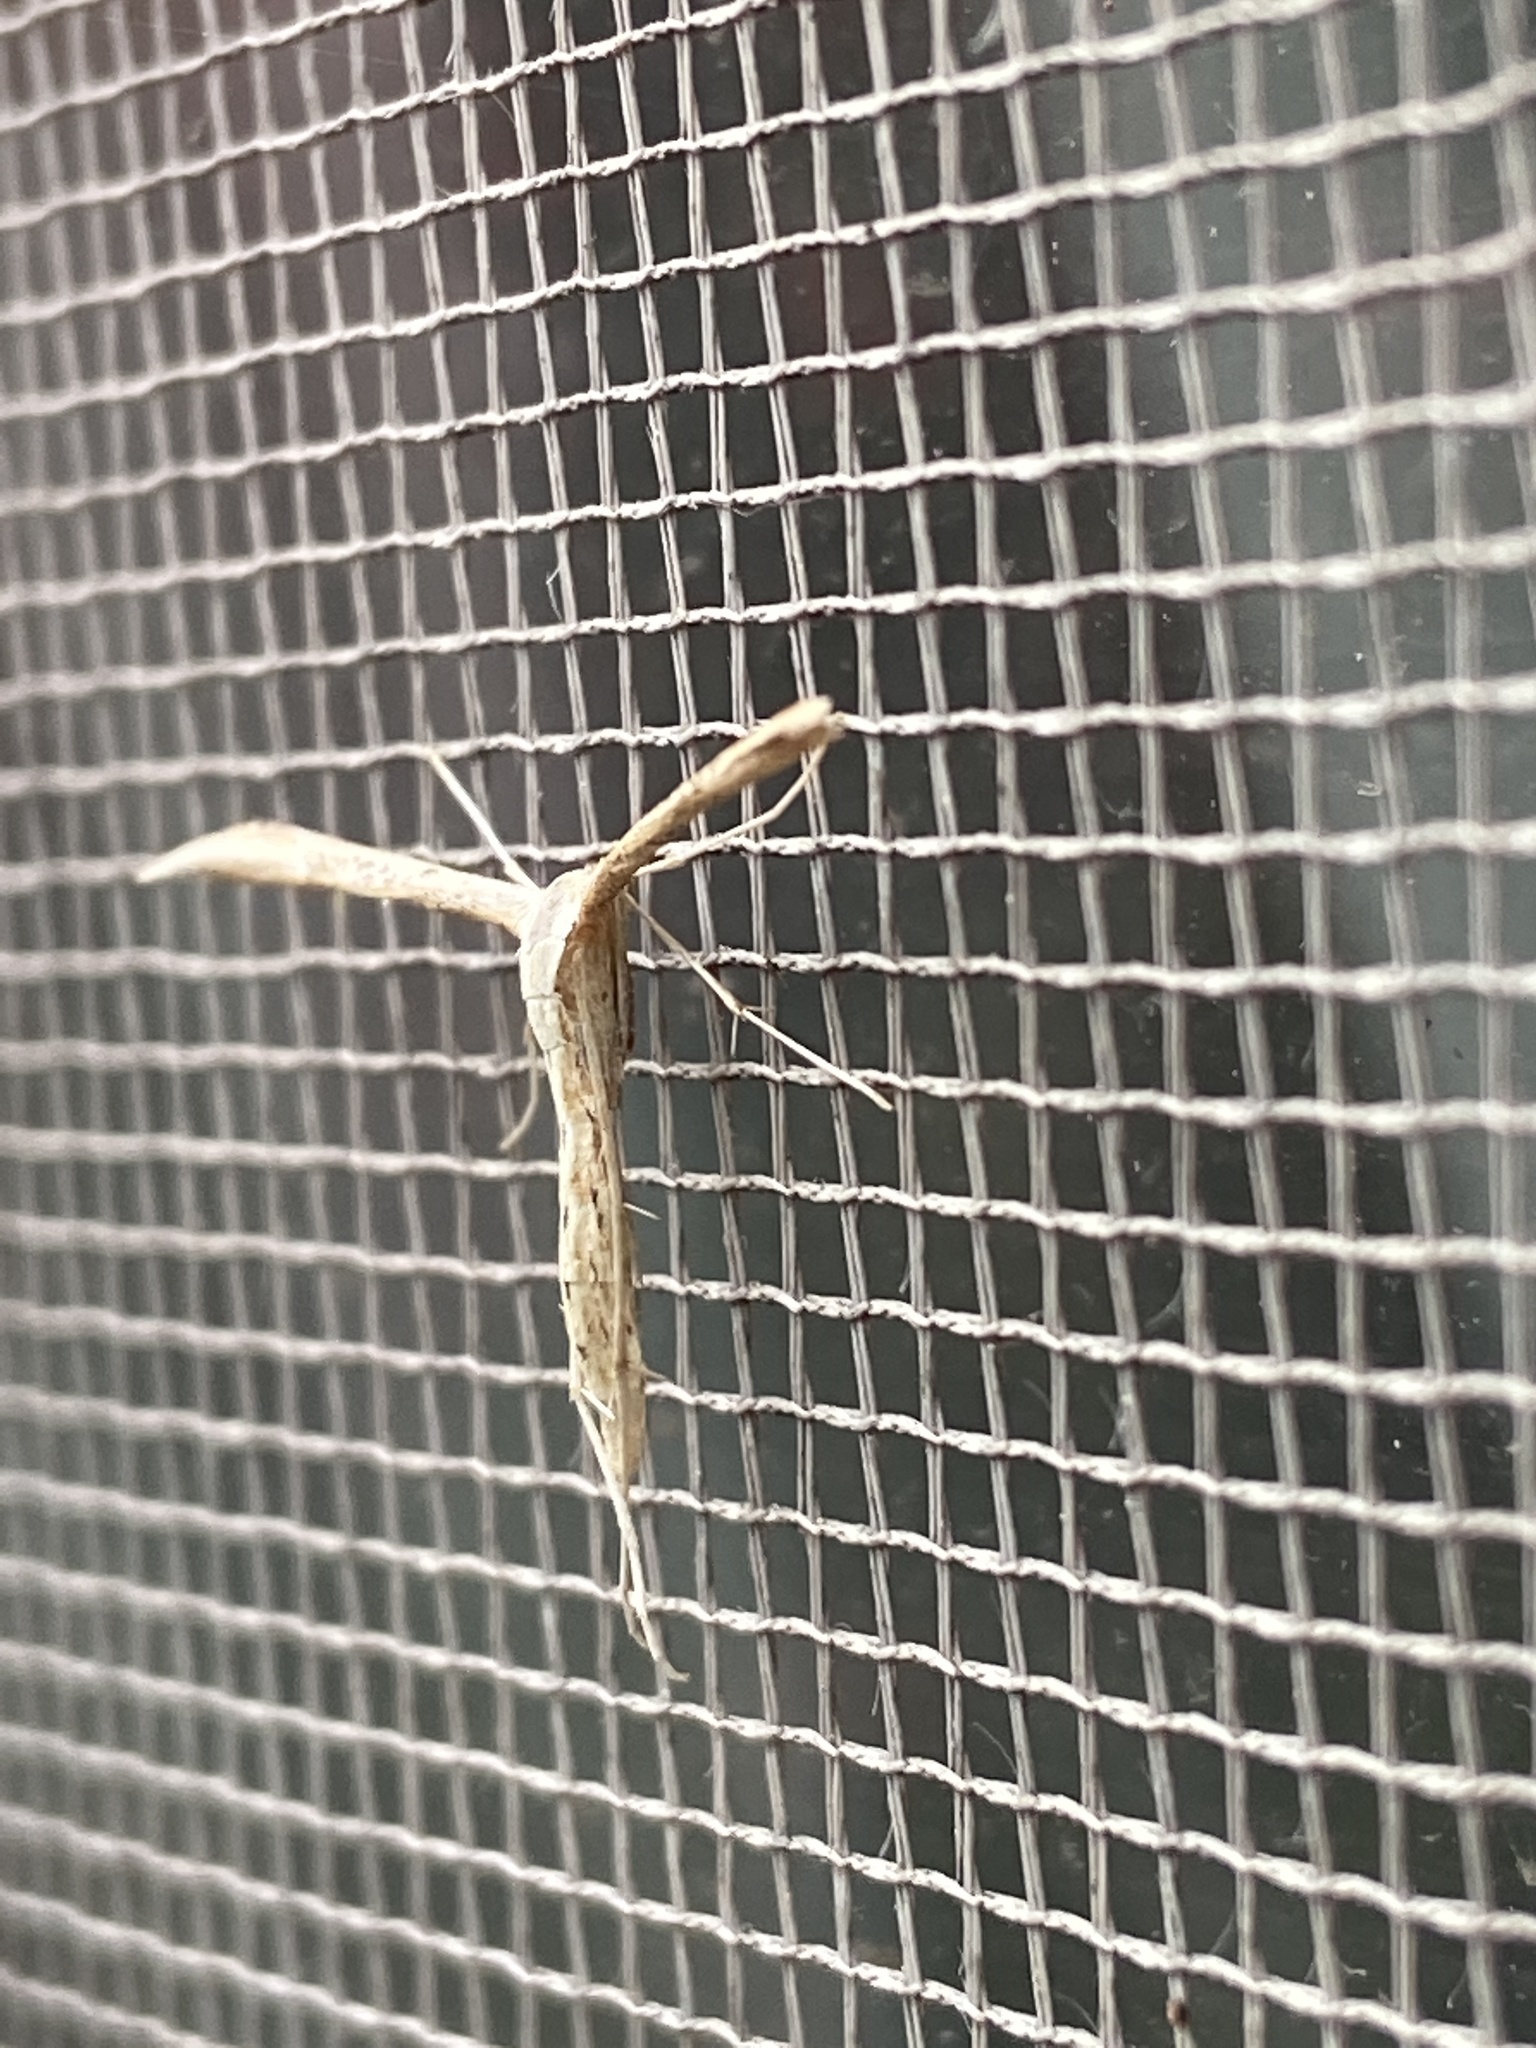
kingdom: Animalia
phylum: Arthropoda
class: Insecta
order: Lepidoptera
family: Pterophoridae
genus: Emmelina
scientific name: Emmelina monodactyla
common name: Common plume
